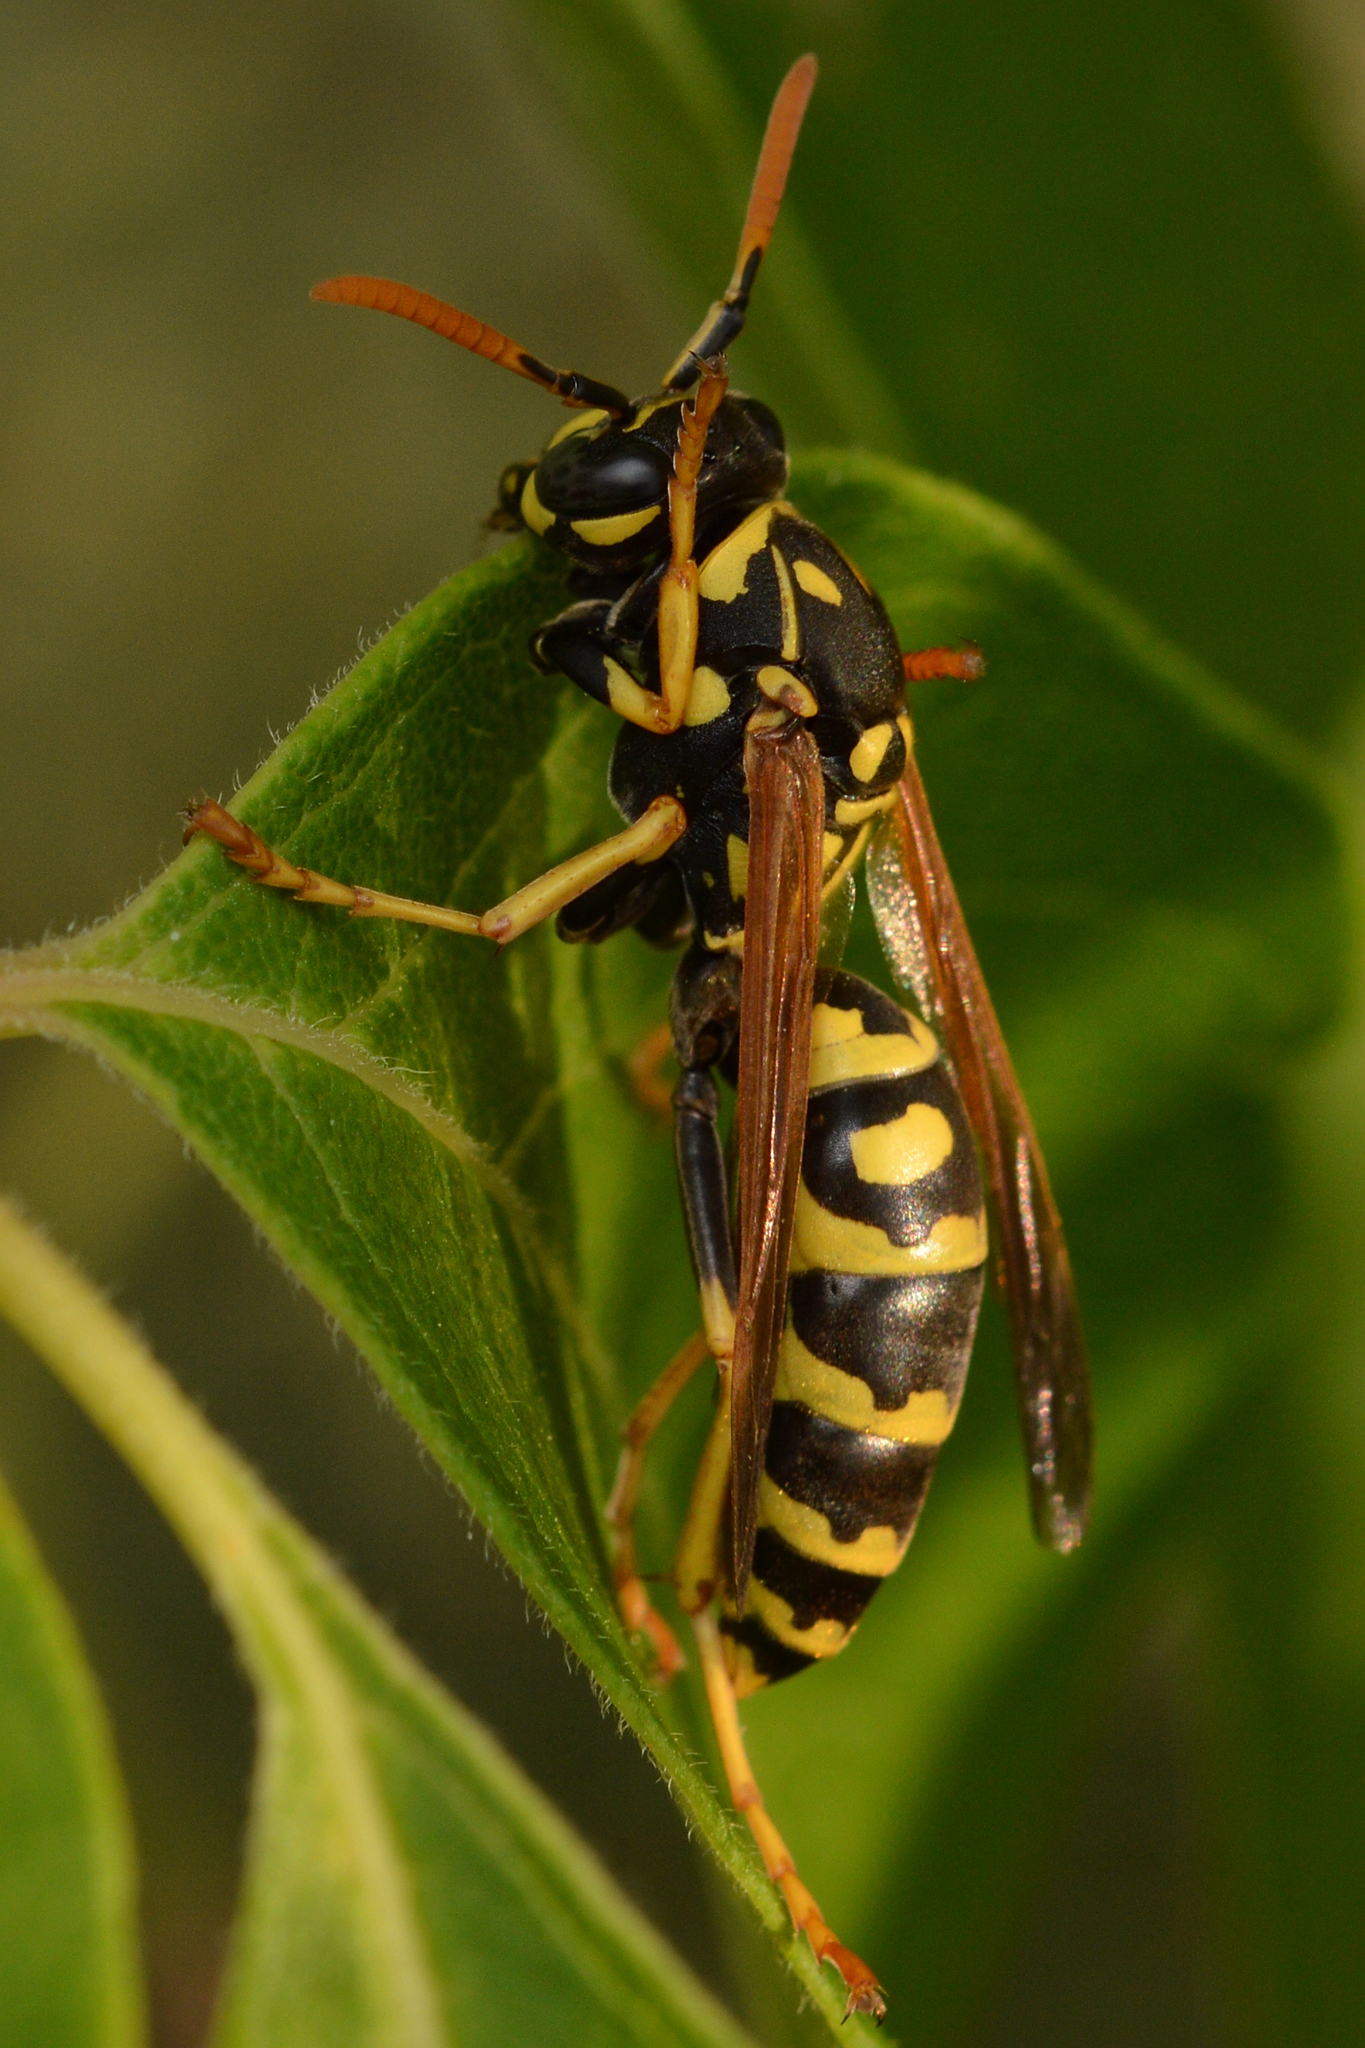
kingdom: Animalia
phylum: Arthropoda
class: Insecta
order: Hymenoptera
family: Eumenidae
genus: Polistes
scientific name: Polistes dominula
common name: Paper wasp
